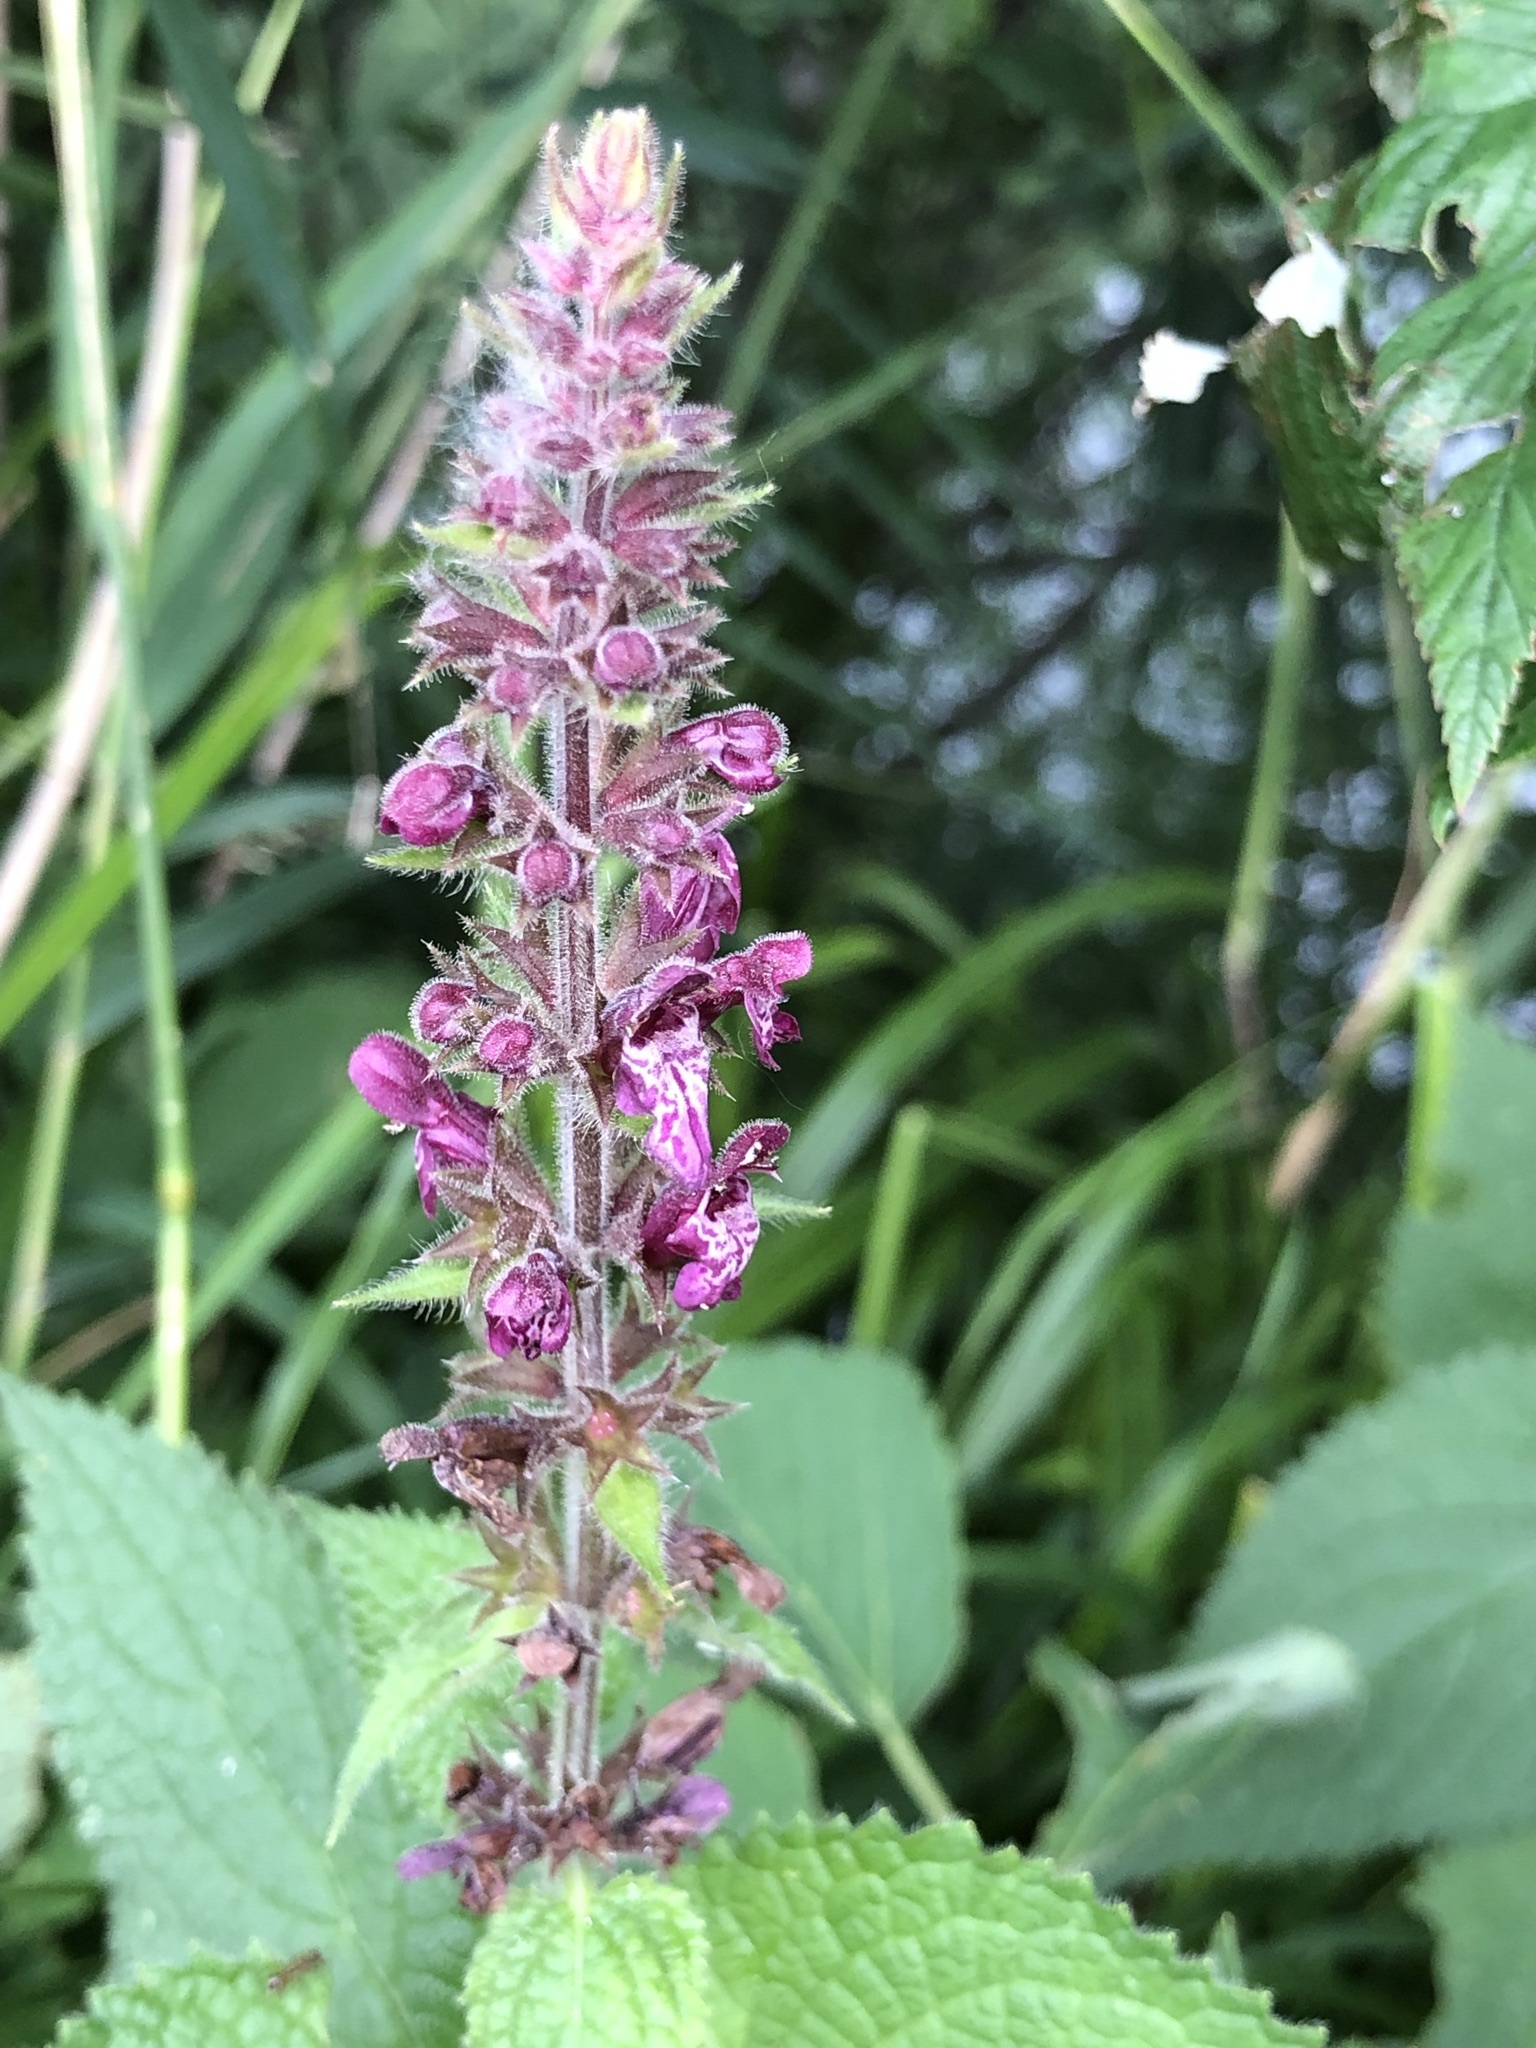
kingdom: Plantae
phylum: Tracheophyta
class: Magnoliopsida
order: Lamiales
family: Lamiaceae
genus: Stachys
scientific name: Stachys sylvatica
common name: Hedge woundwort
